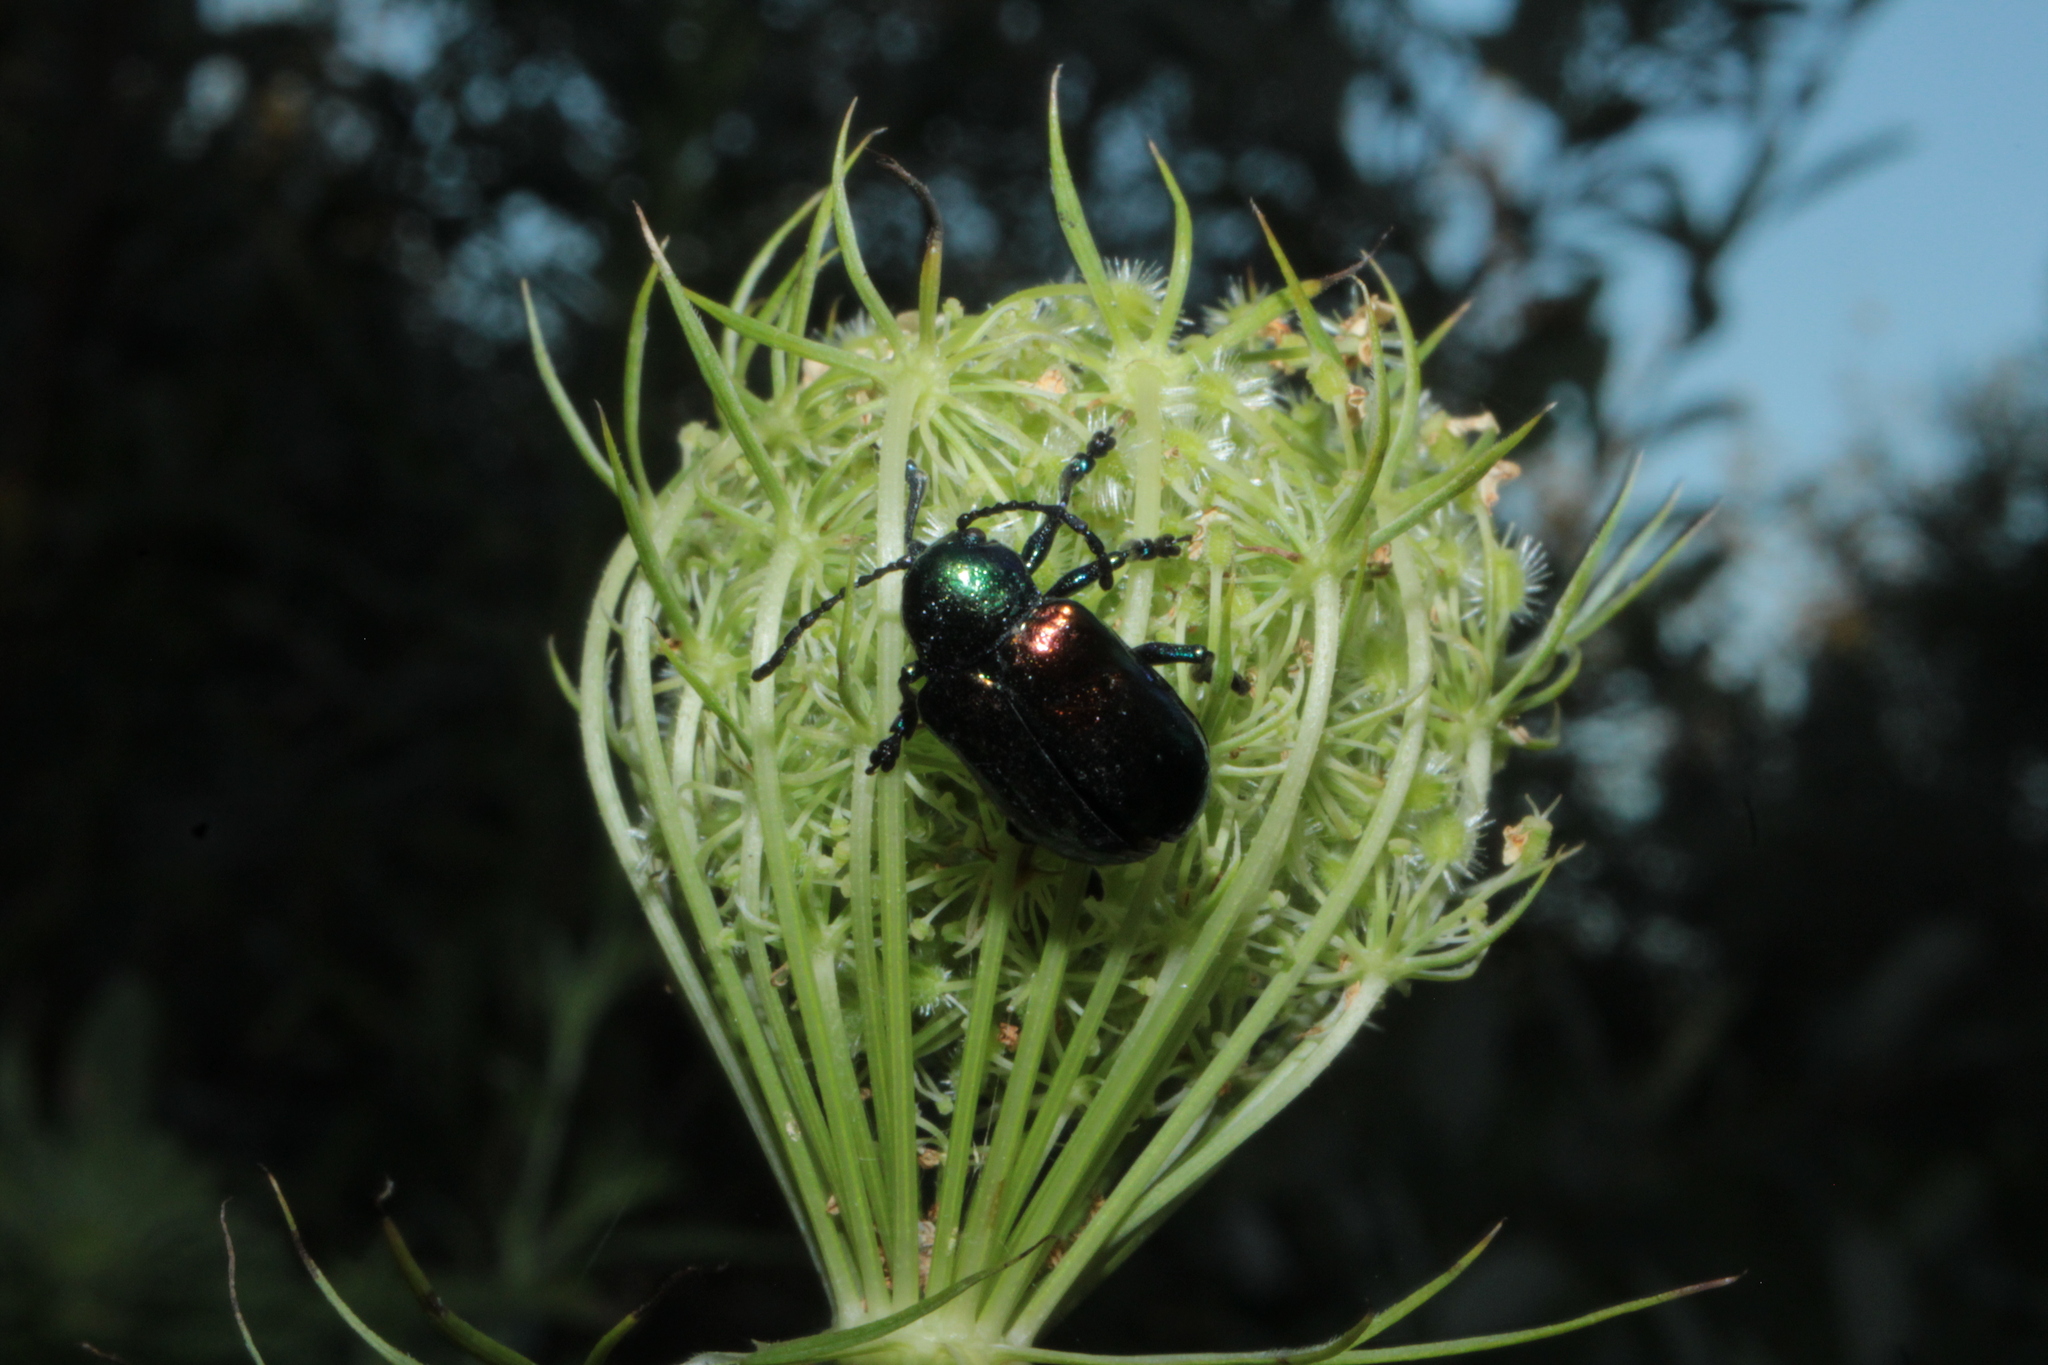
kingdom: Animalia
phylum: Arthropoda
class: Insecta
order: Coleoptera
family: Chrysomelidae
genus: Chrysochus
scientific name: Chrysochus auratus
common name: Dogbane leaf beetle
